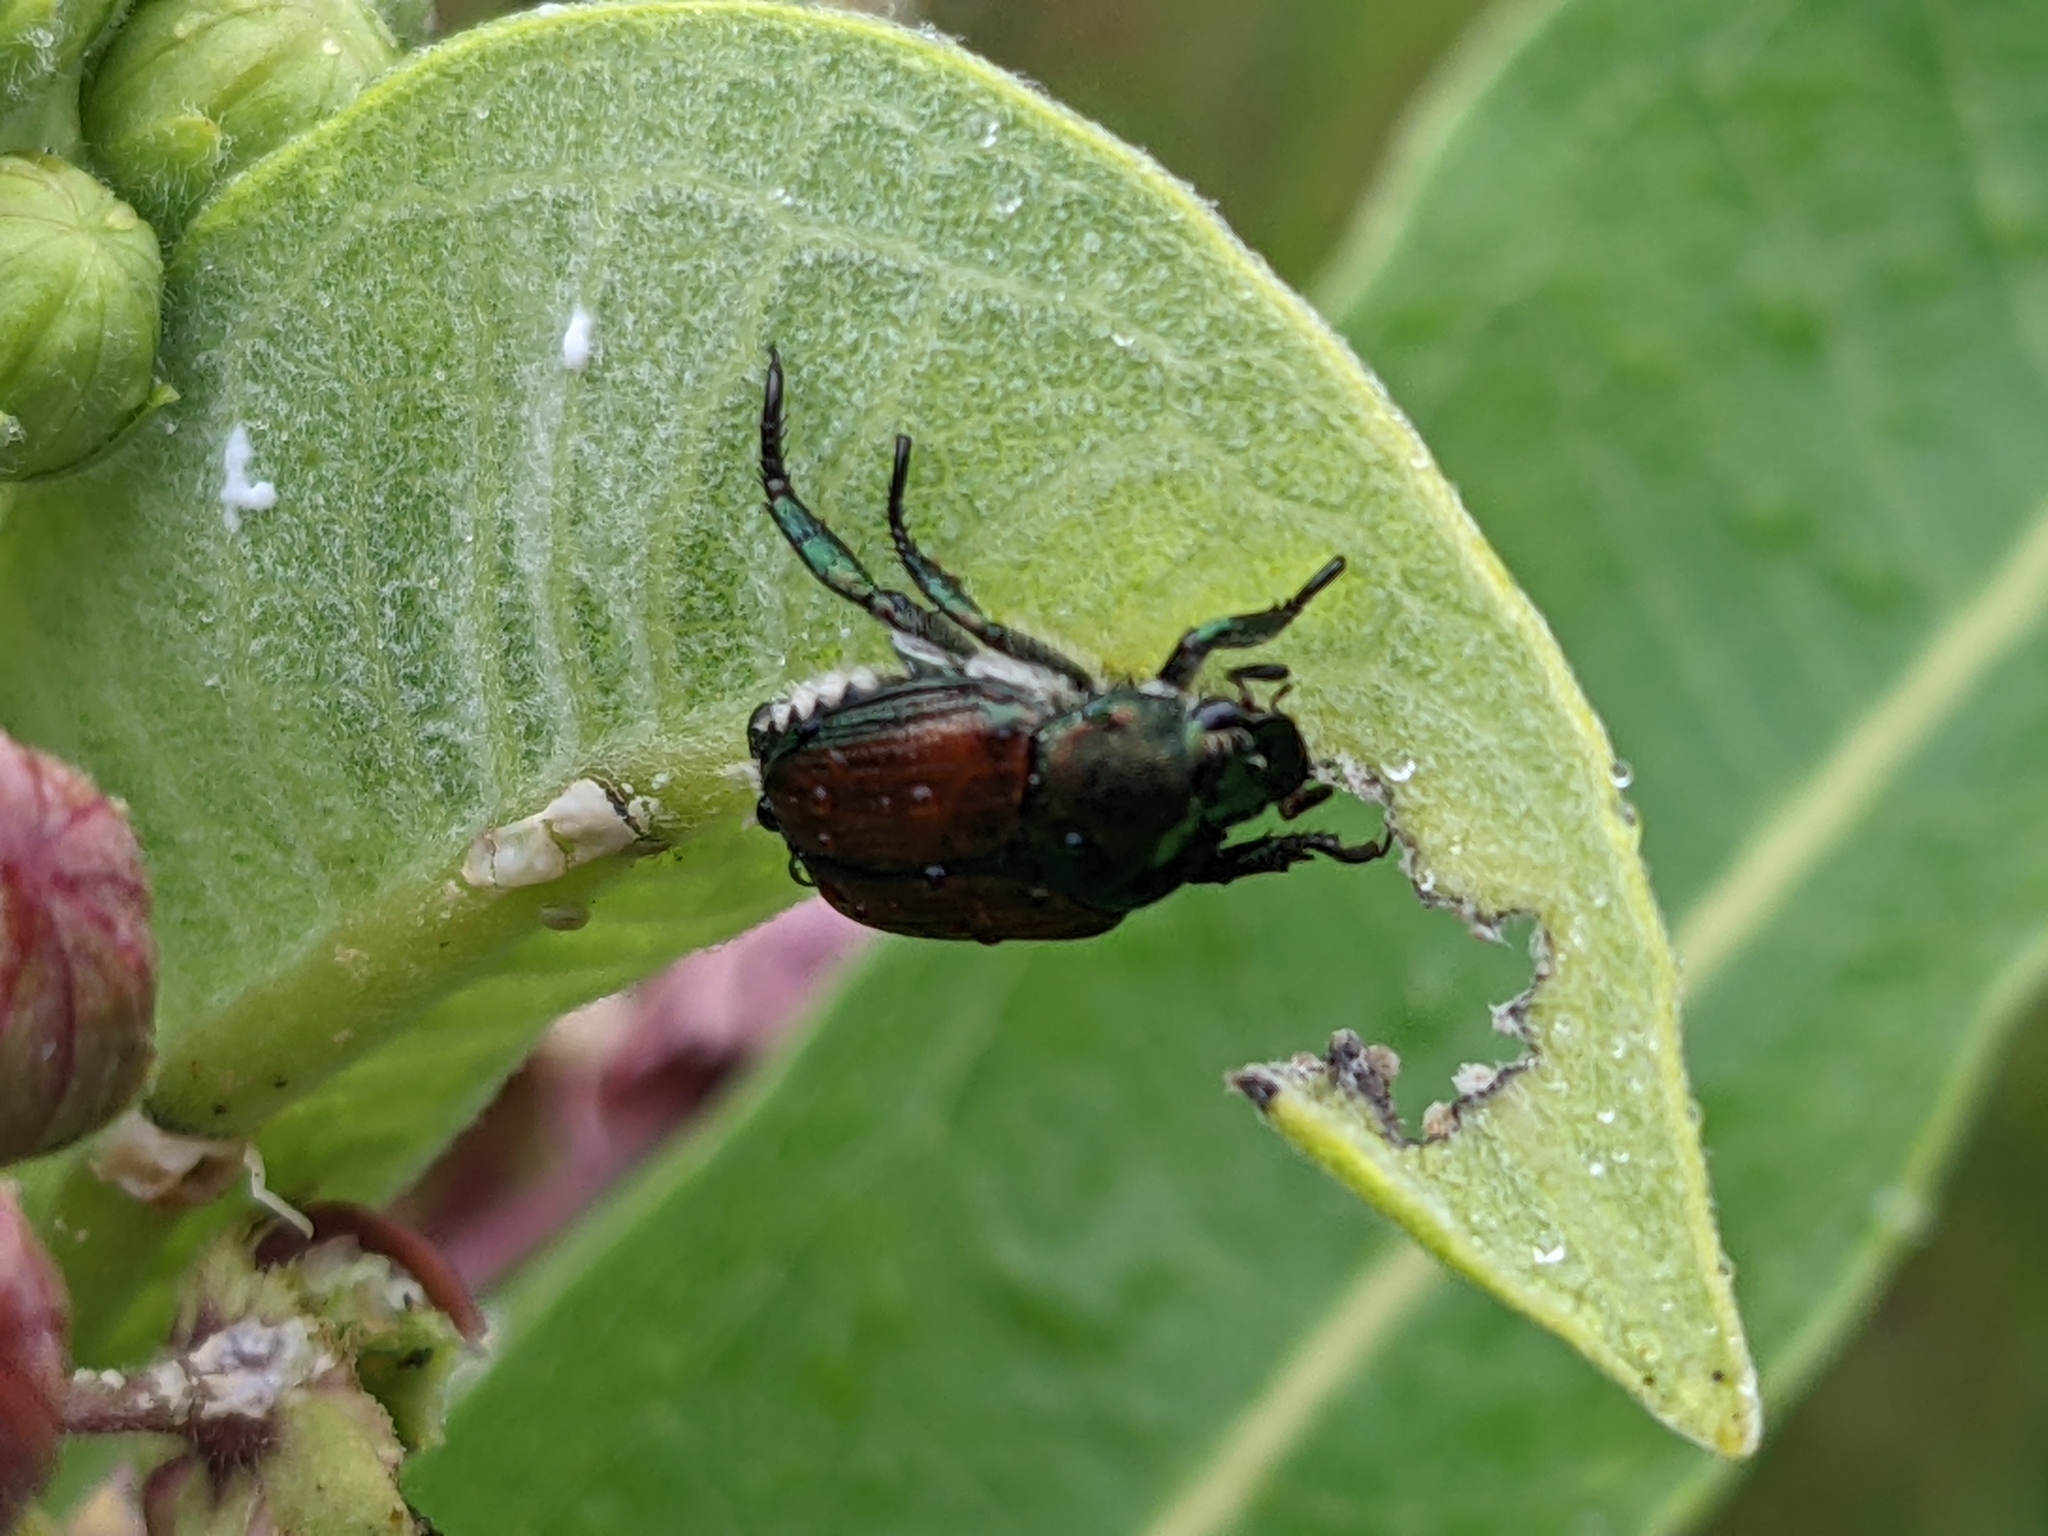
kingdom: Animalia
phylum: Arthropoda
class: Insecta
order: Coleoptera
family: Scarabaeidae
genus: Popillia
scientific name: Popillia japonica
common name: Japanese beetle
